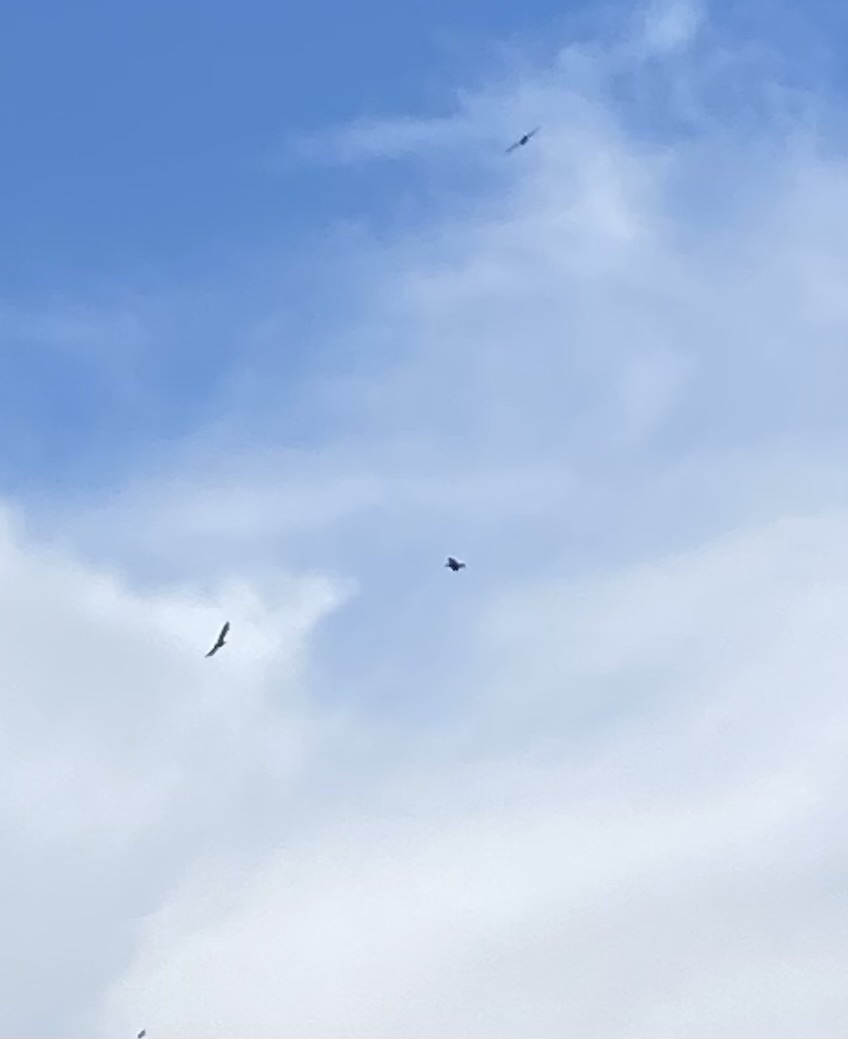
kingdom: Animalia
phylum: Chordata
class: Aves
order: Passeriformes
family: Corvidae
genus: Corvus
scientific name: Corvus corax
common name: Common raven
